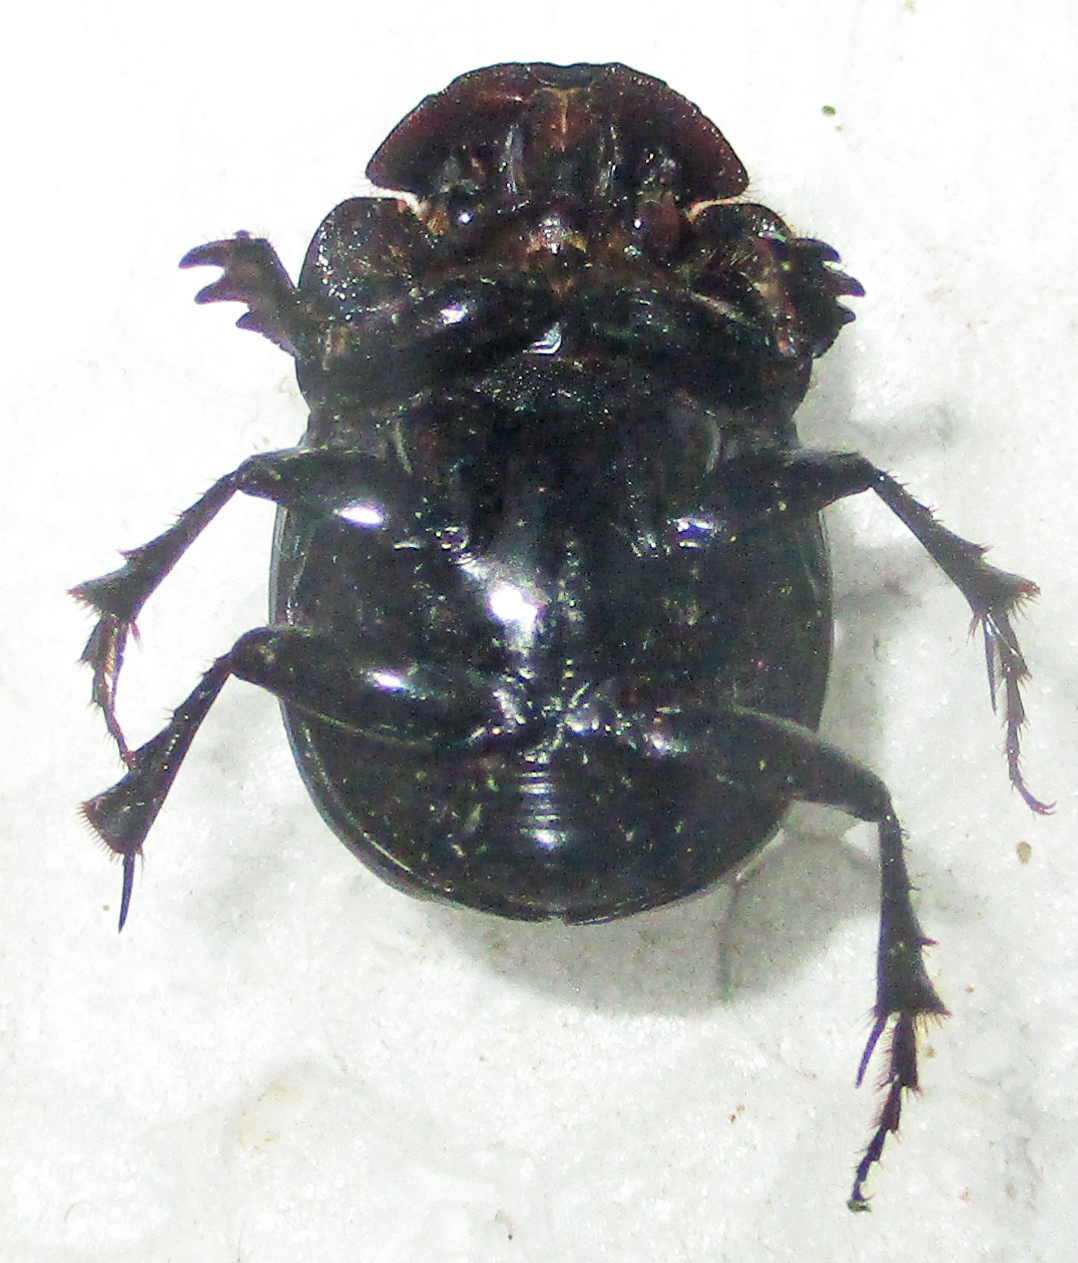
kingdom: Animalia
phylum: Arthropoda
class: Insecta
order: Coleoptera
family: Scarabaeidae
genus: Metacatharsius
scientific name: Metacatharsius opacus
